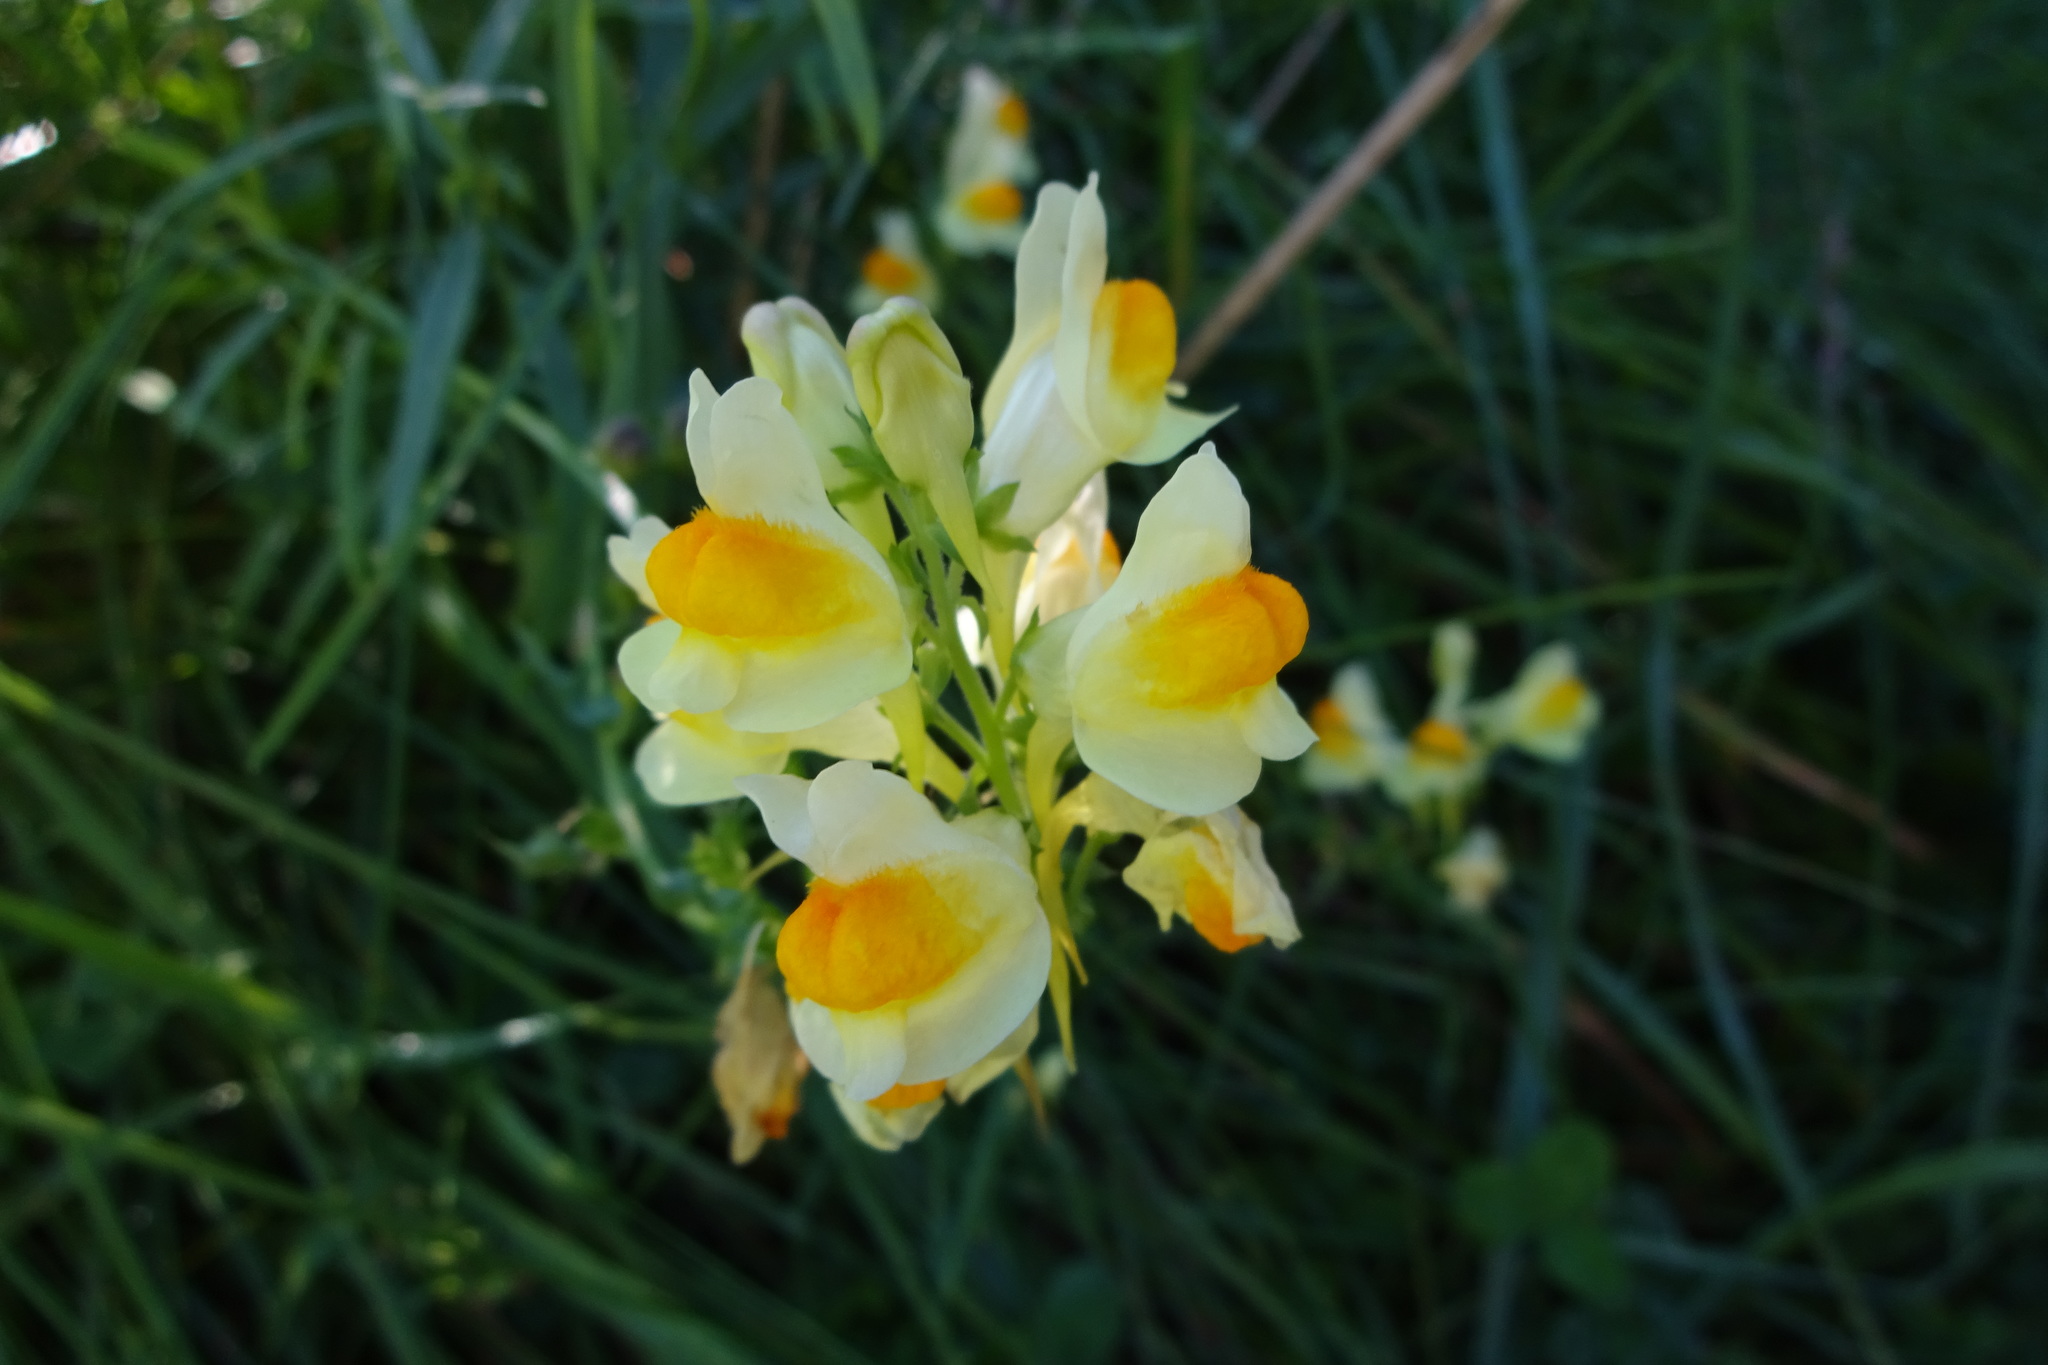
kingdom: Plantae
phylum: Tracheophyta
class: Magnoliopsida
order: Lamiales
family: Plantaginaceae
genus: Linaria
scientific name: Linaria vulgaris
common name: Butter and eggs
